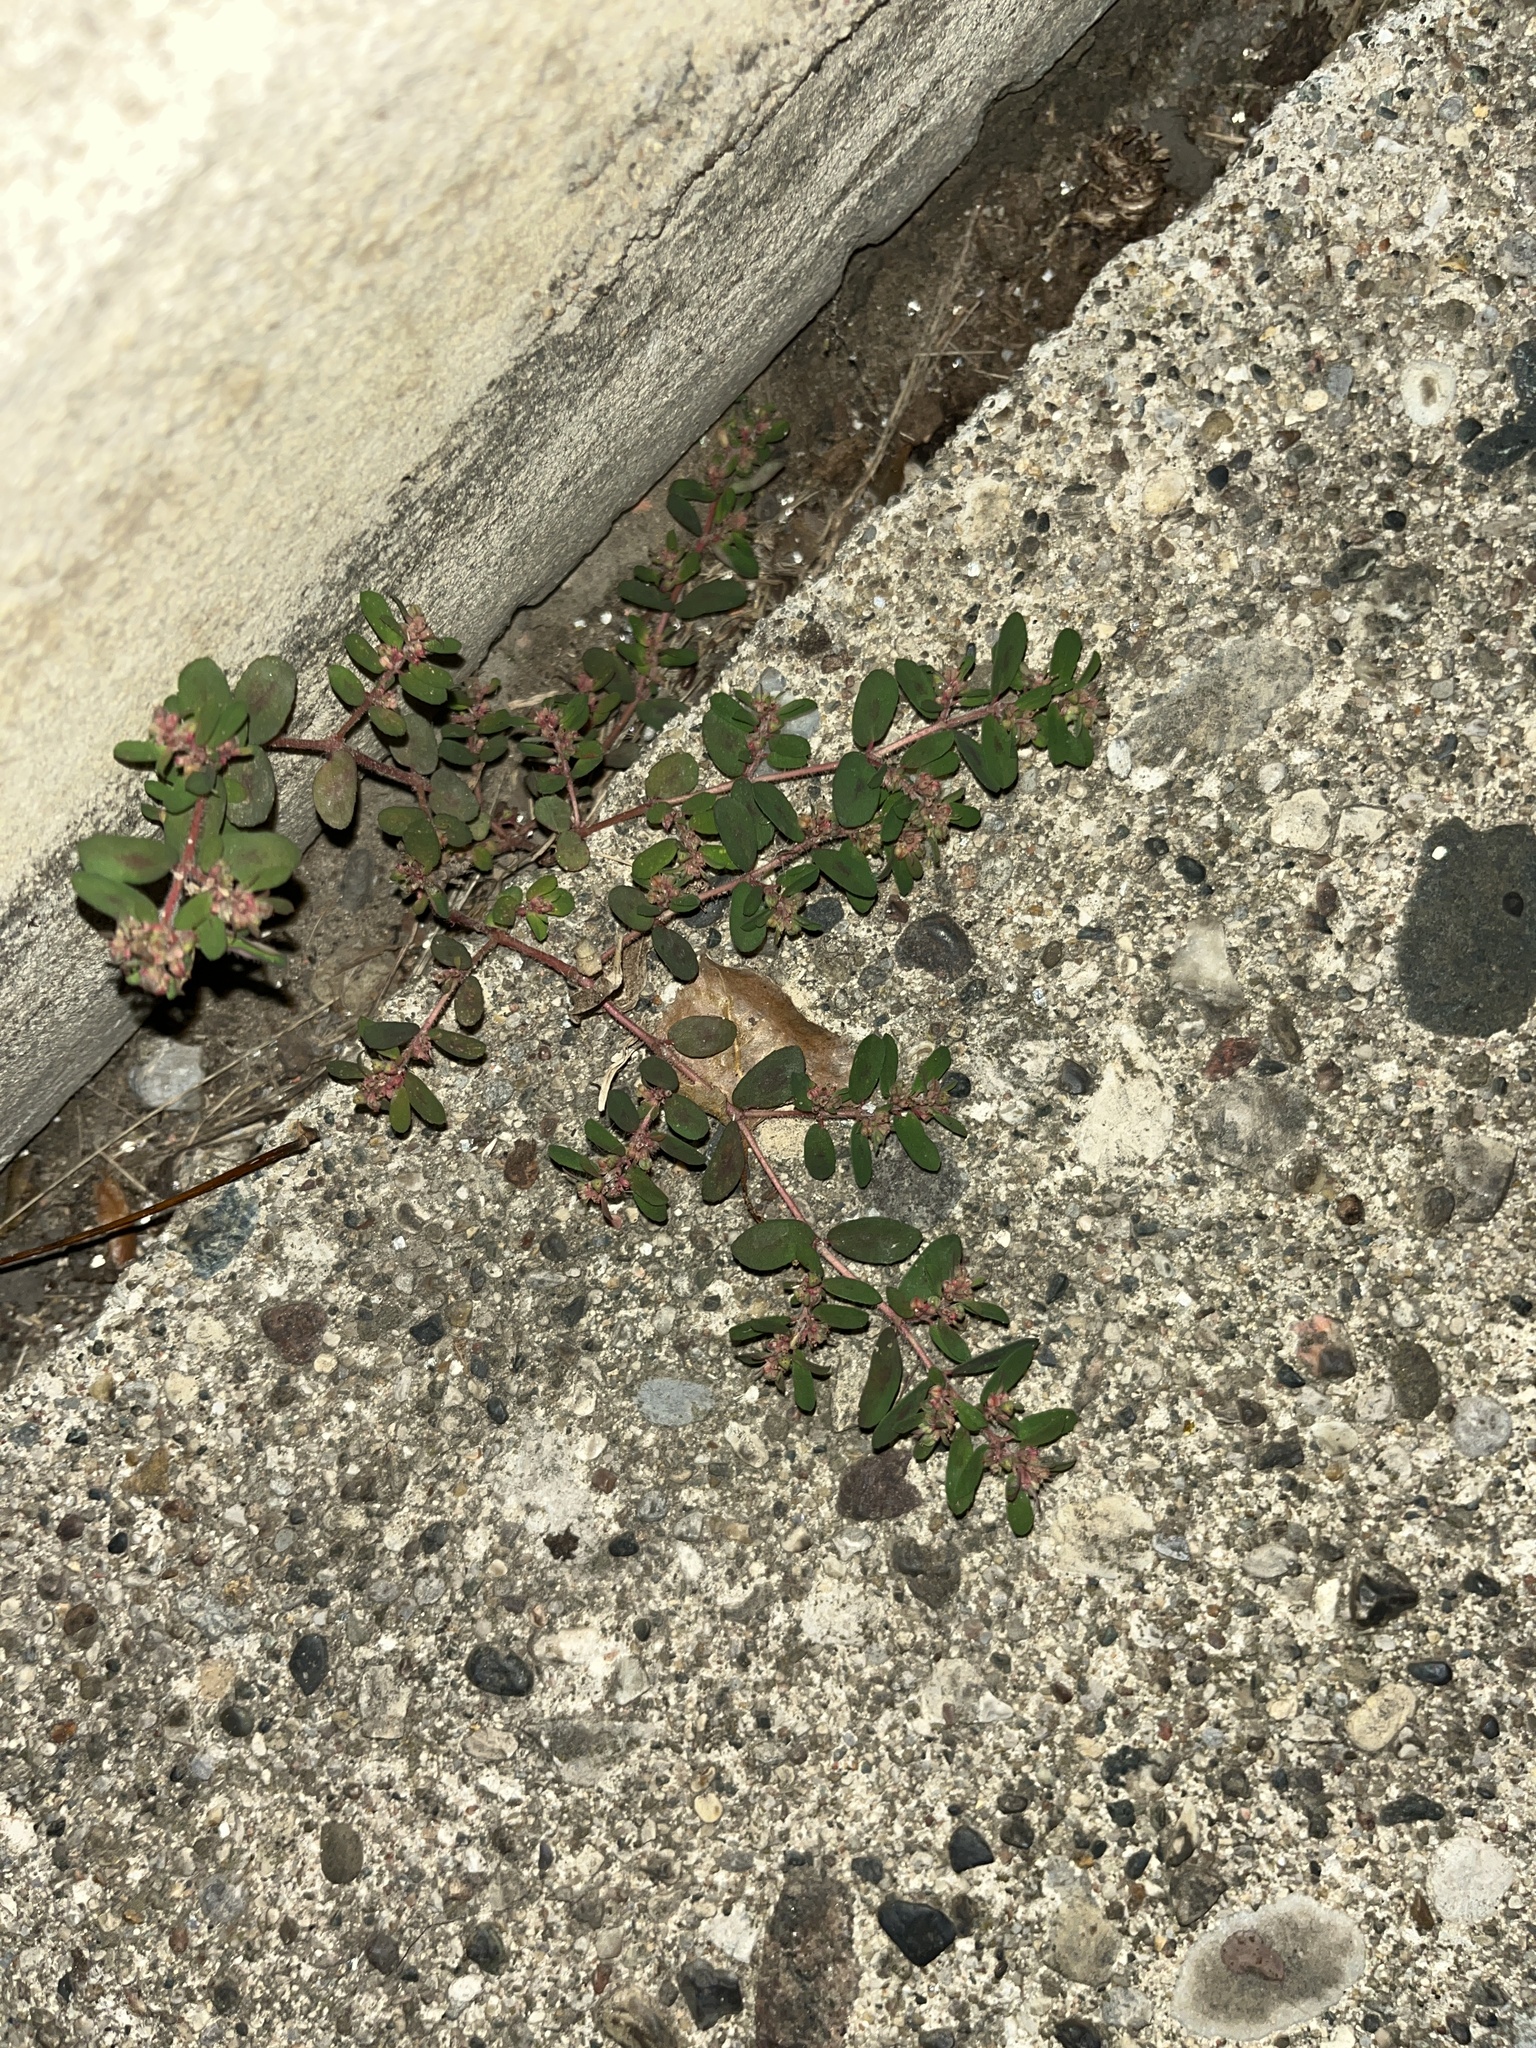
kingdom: Plantae
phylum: Tracheophyta
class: Magnoliopsida
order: Malpighiales
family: Euphorbiaceae
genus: Euphorbia
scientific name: Euphorbia maculata
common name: Spotted spurge
